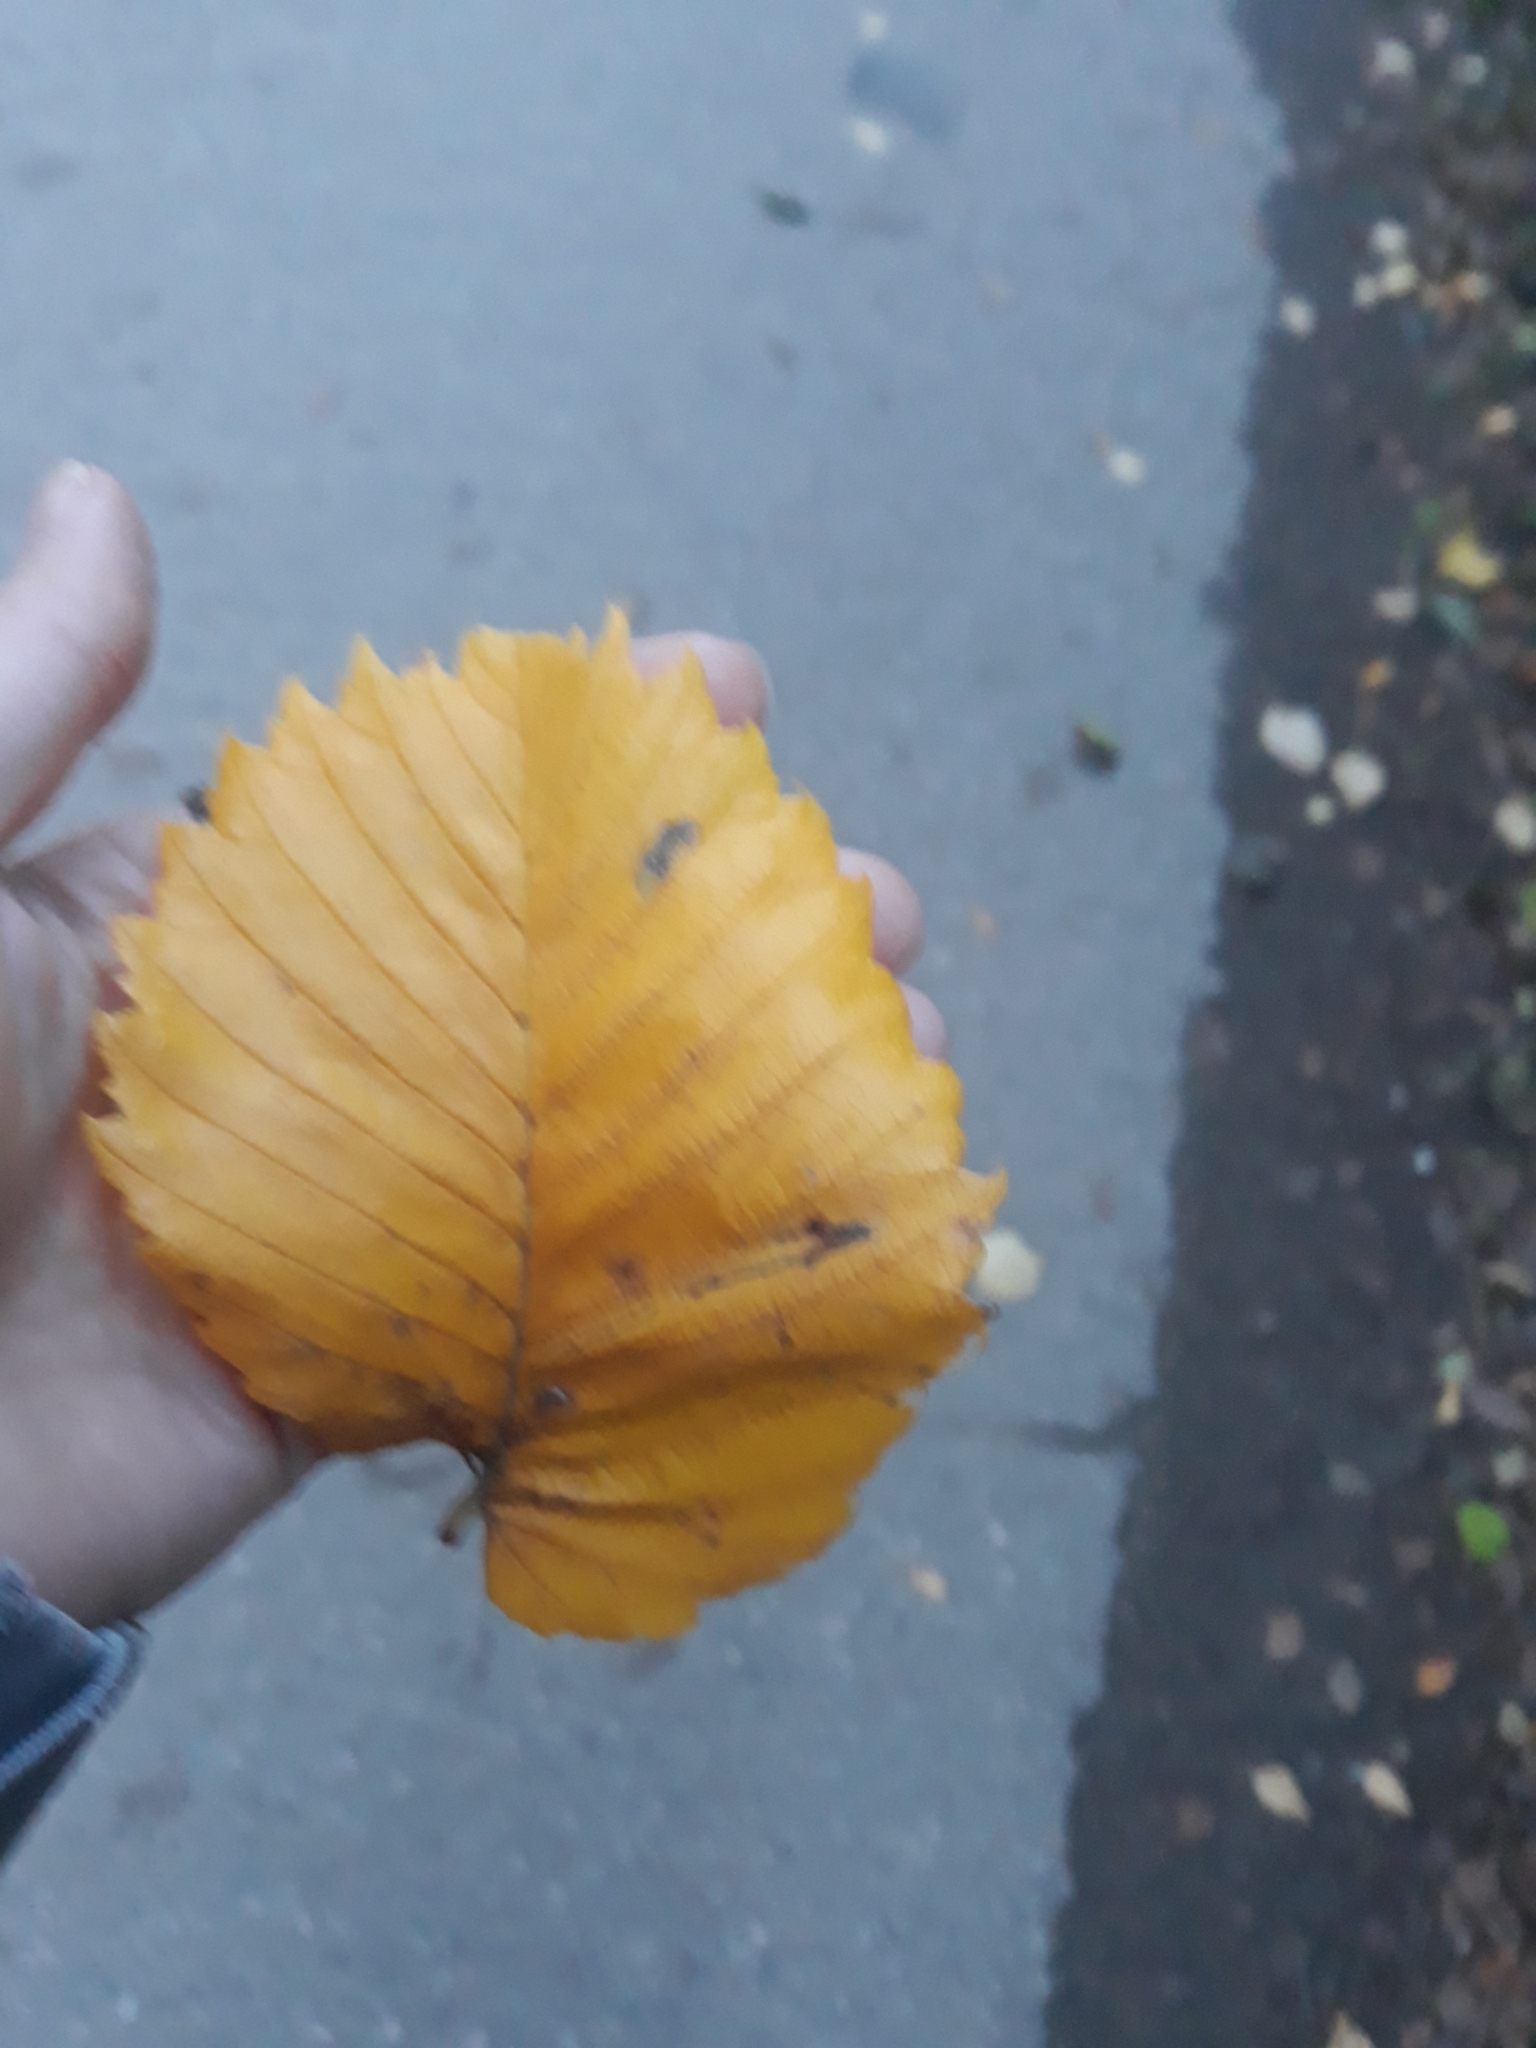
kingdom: Plantae
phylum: Tracheophyta
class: Magnoliopsida
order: Rosales
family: Ulmaceae
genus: Ulmus
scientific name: Ulmus laevis
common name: European white-elm
